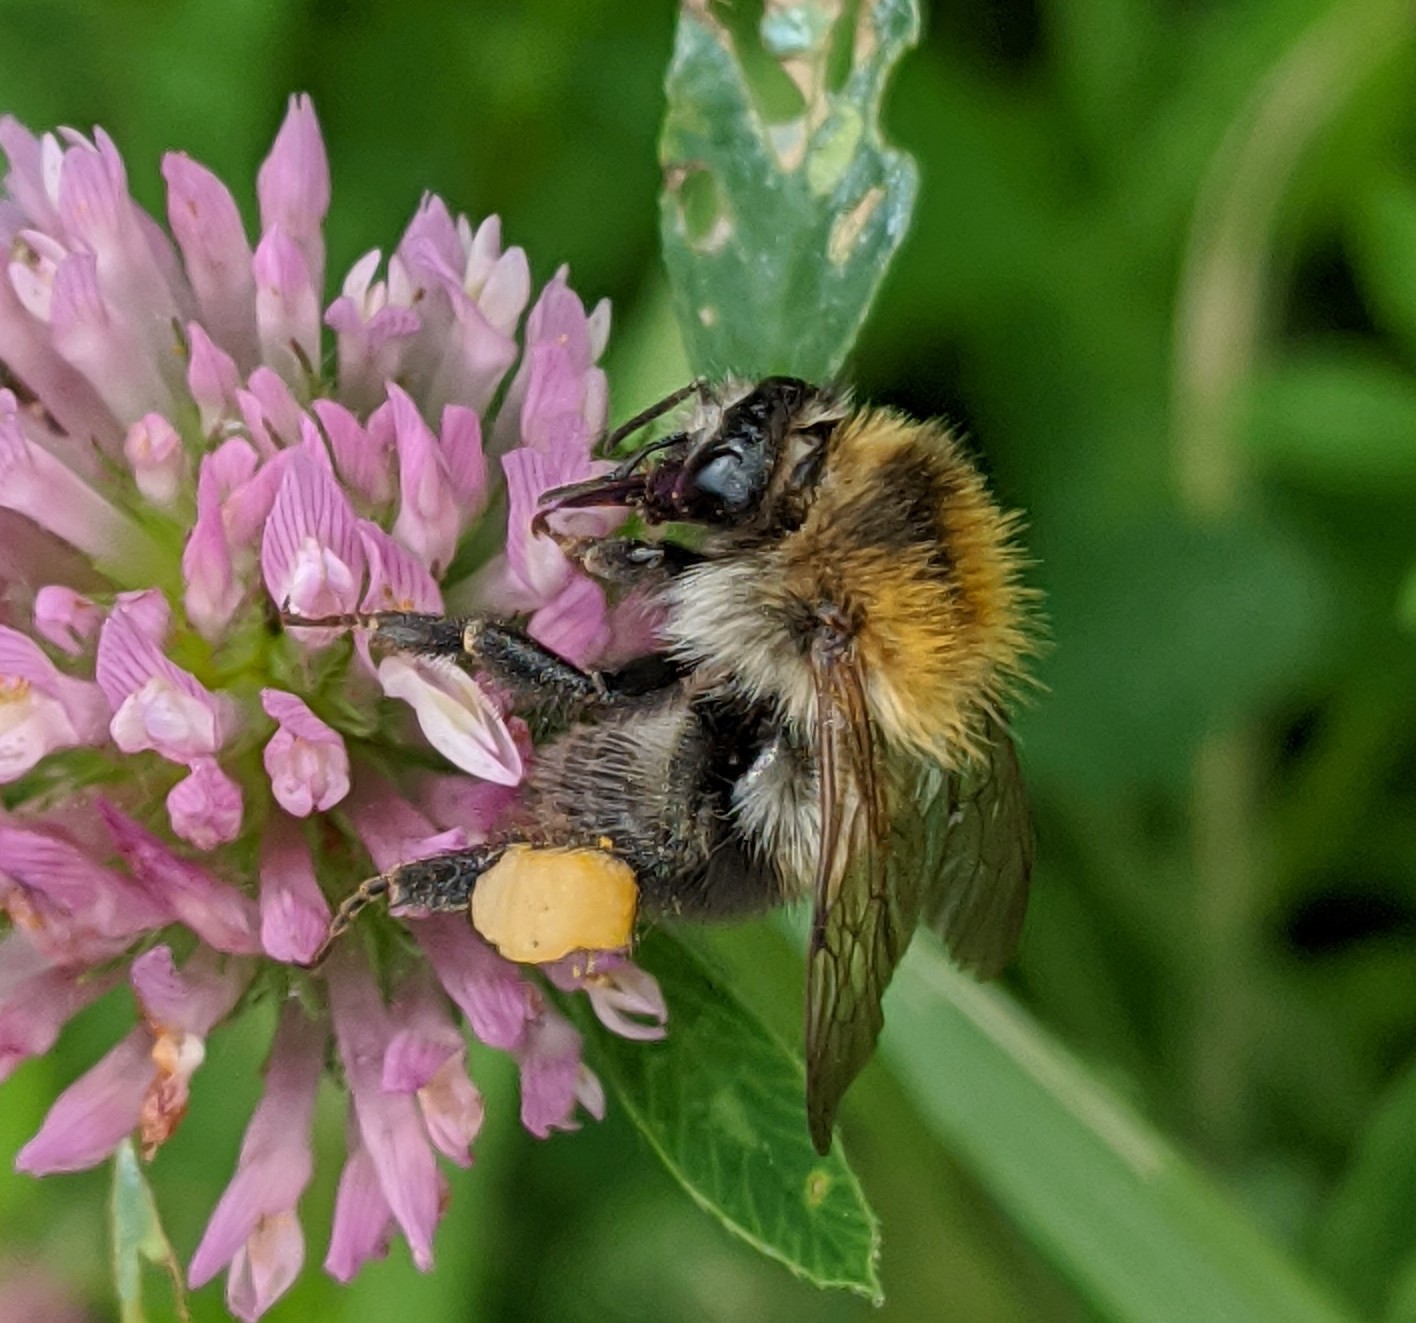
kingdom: Animalia
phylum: Arthropoda
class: Insecta
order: Hymenoptera
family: Apidae
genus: Bombus
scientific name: Bombus pascuorum
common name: Common carder bee
